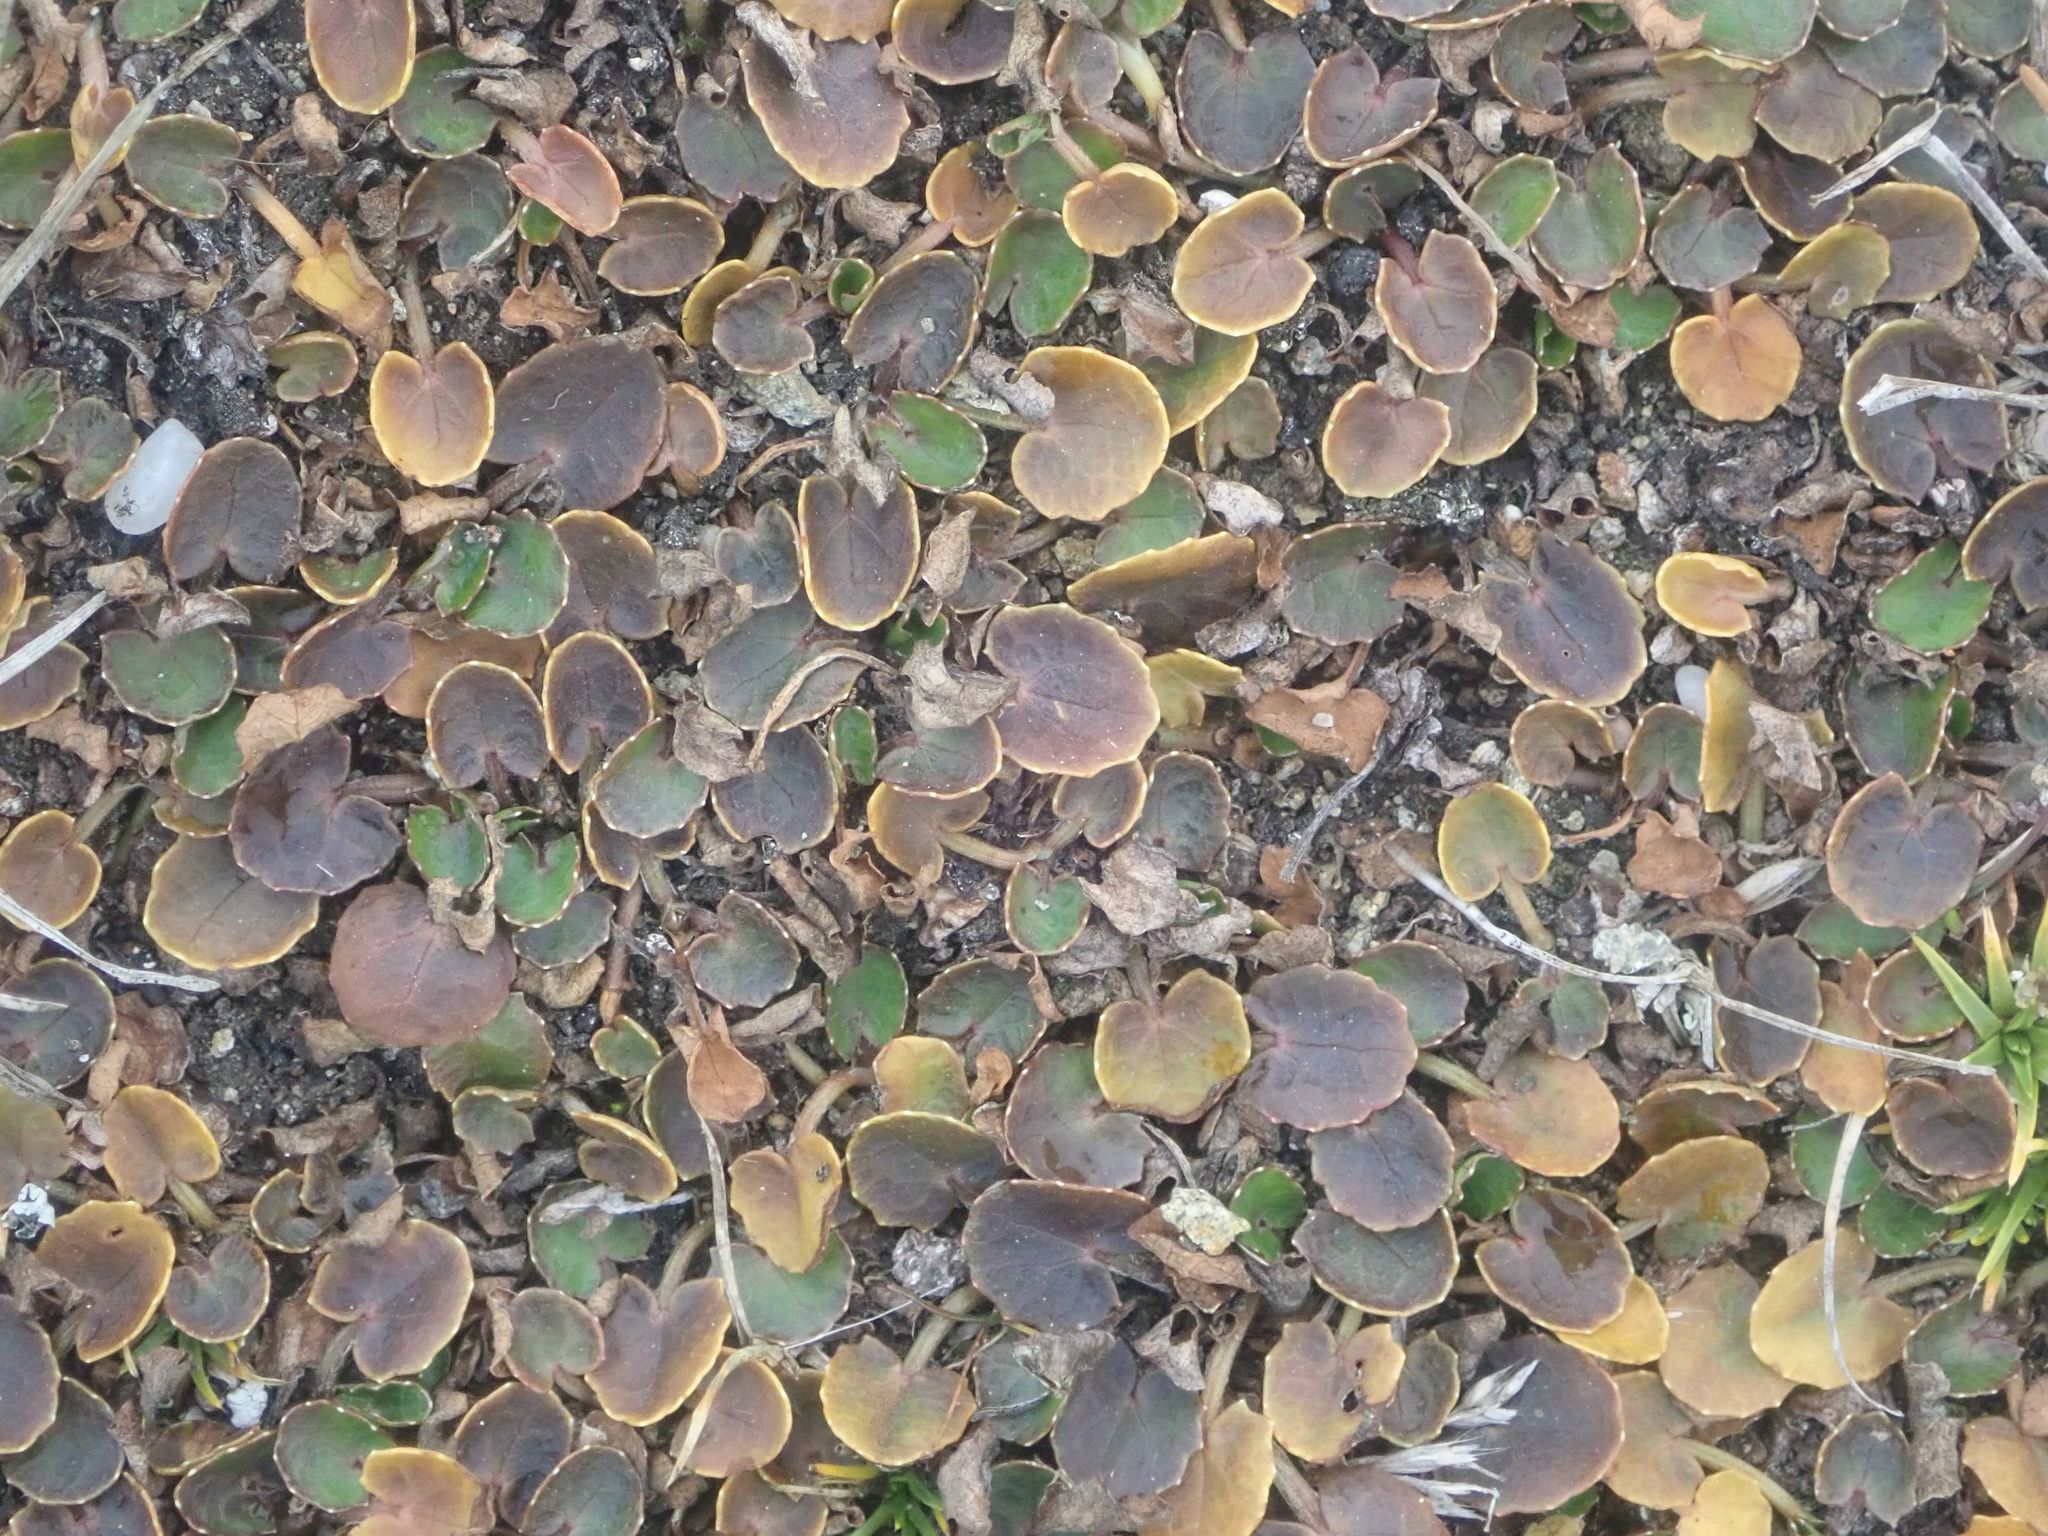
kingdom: Plantae
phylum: Tracheophyta
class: Magnoliopsida
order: Apiales
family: Apiaceae
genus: Centella
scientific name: Centella uniflora
